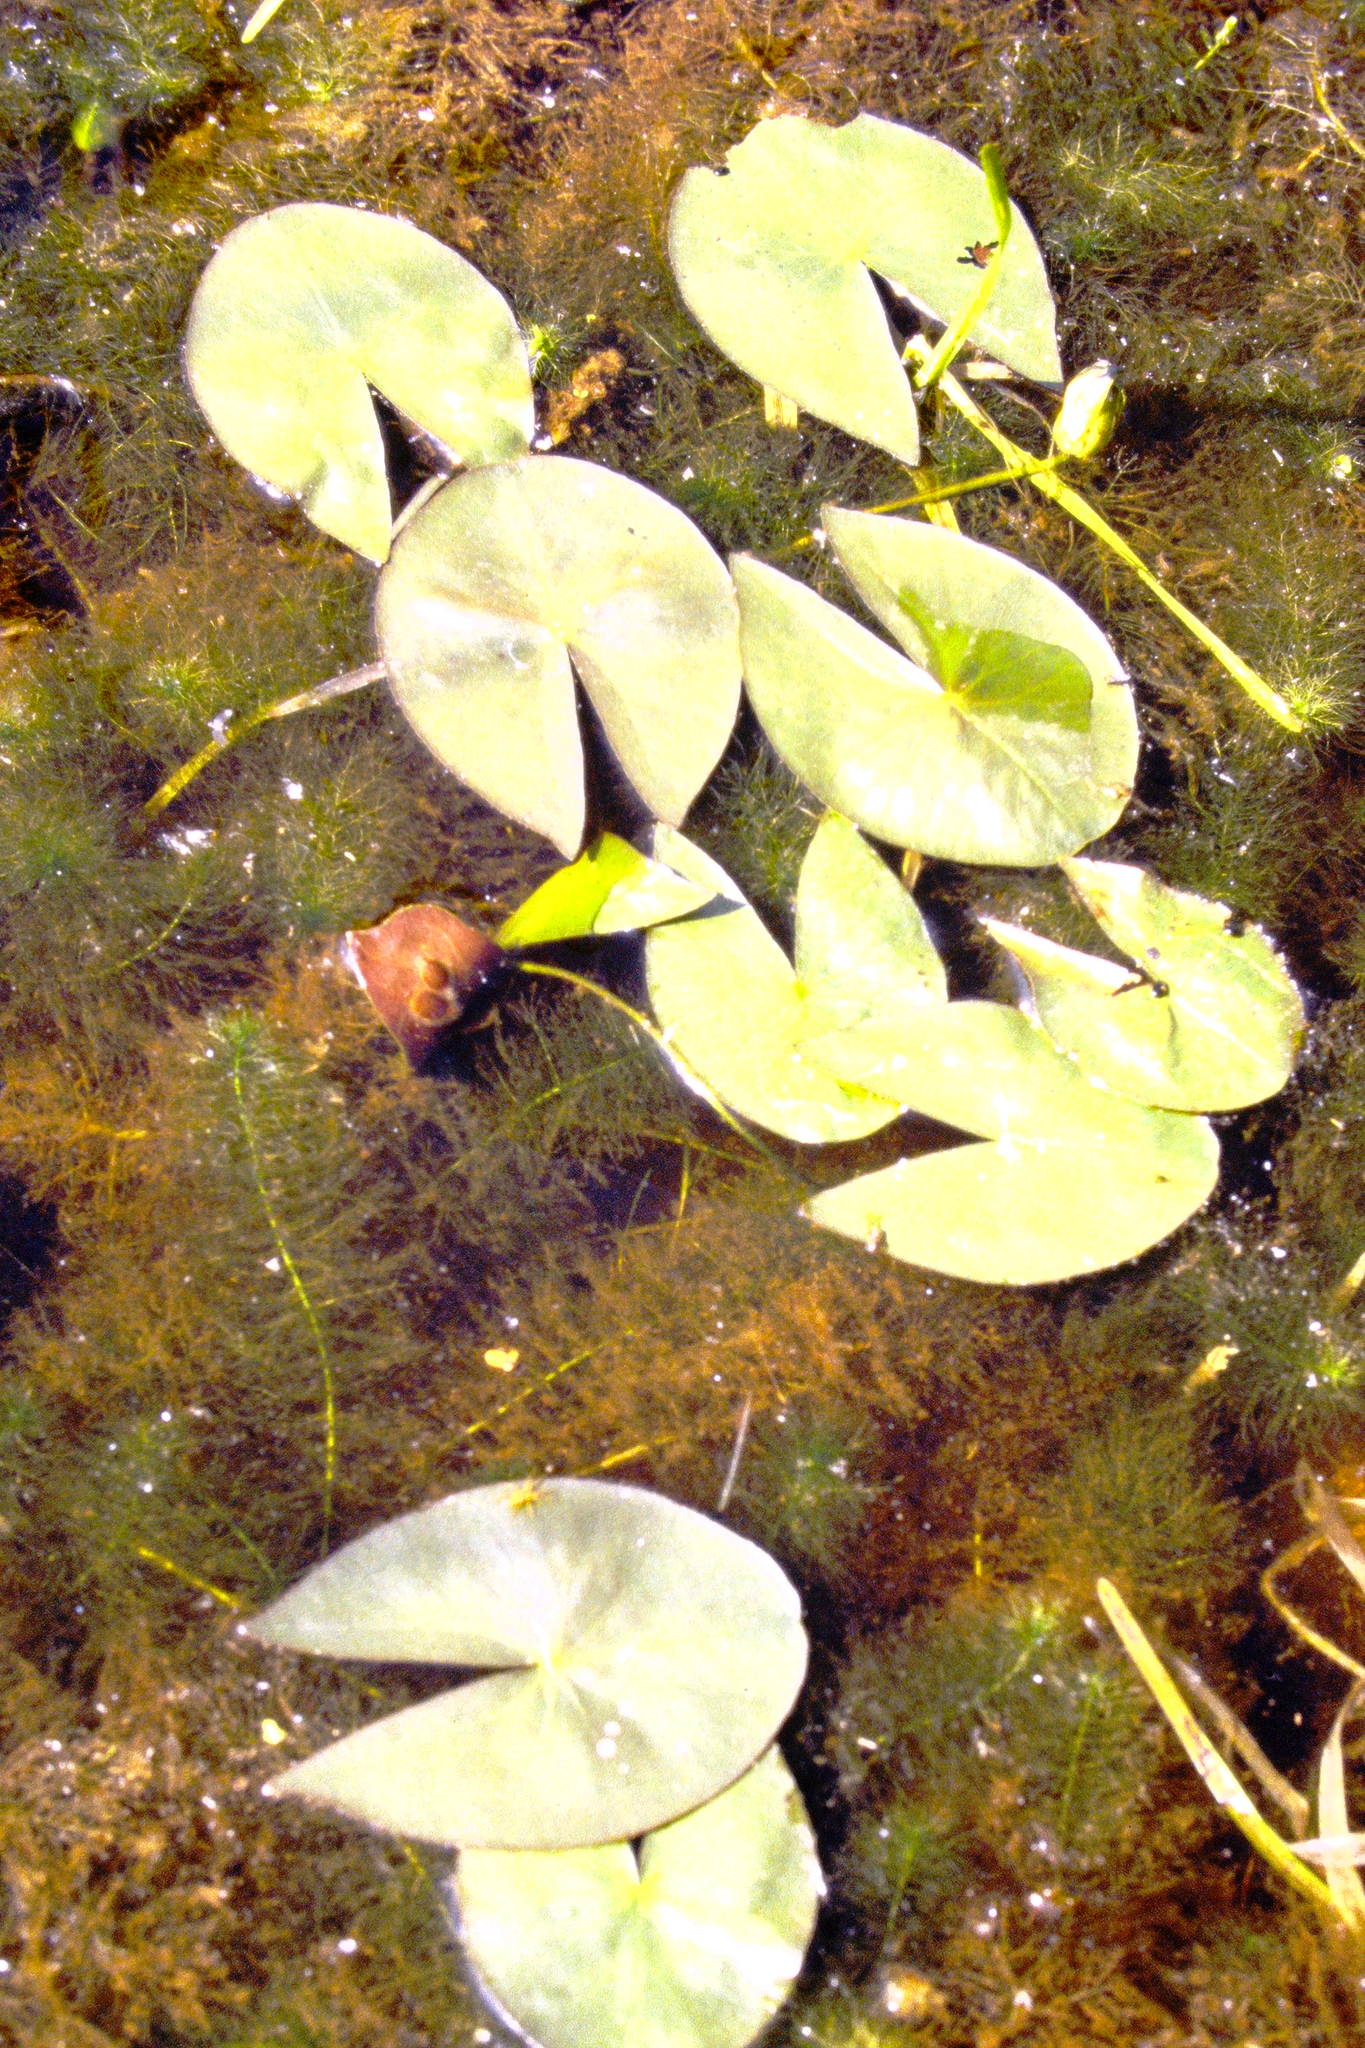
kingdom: Plantae
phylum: Tracheophyta
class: Magnoliopsida
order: Nymphaeales
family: Nymphaeaceae
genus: Nymphaea
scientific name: Nymphaea leibergii
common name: Dwarf water-lily
